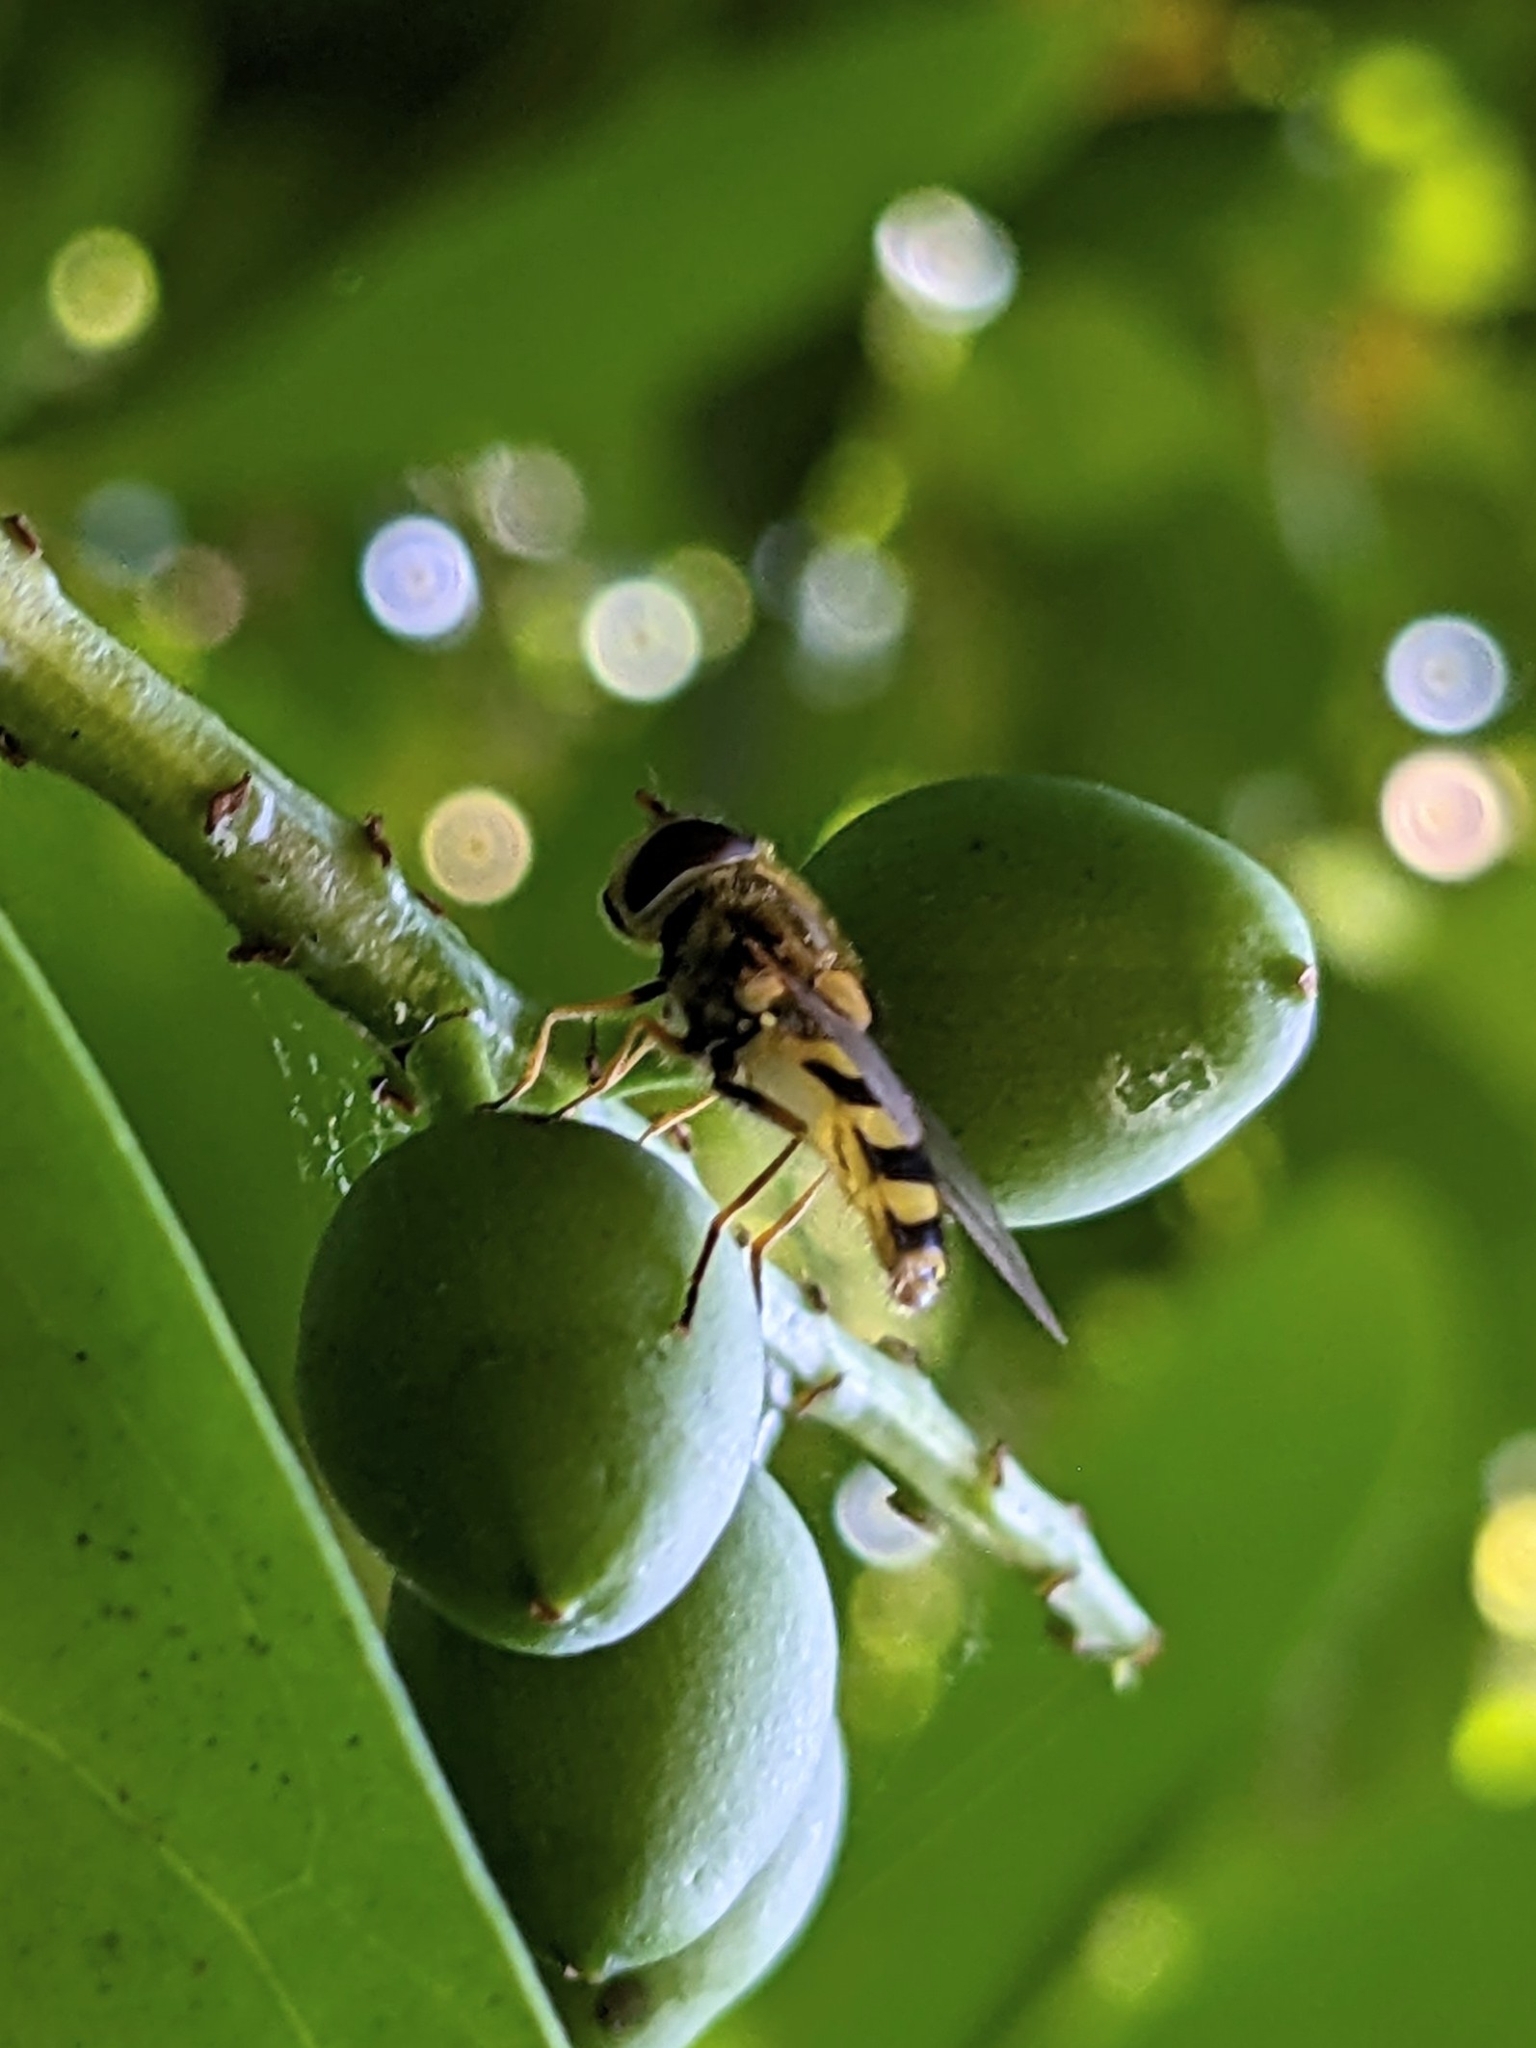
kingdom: Animalia
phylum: Arthropoda
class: Insecta
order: Diptera
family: Syrphidae
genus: Syrphus
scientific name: Syrphus
